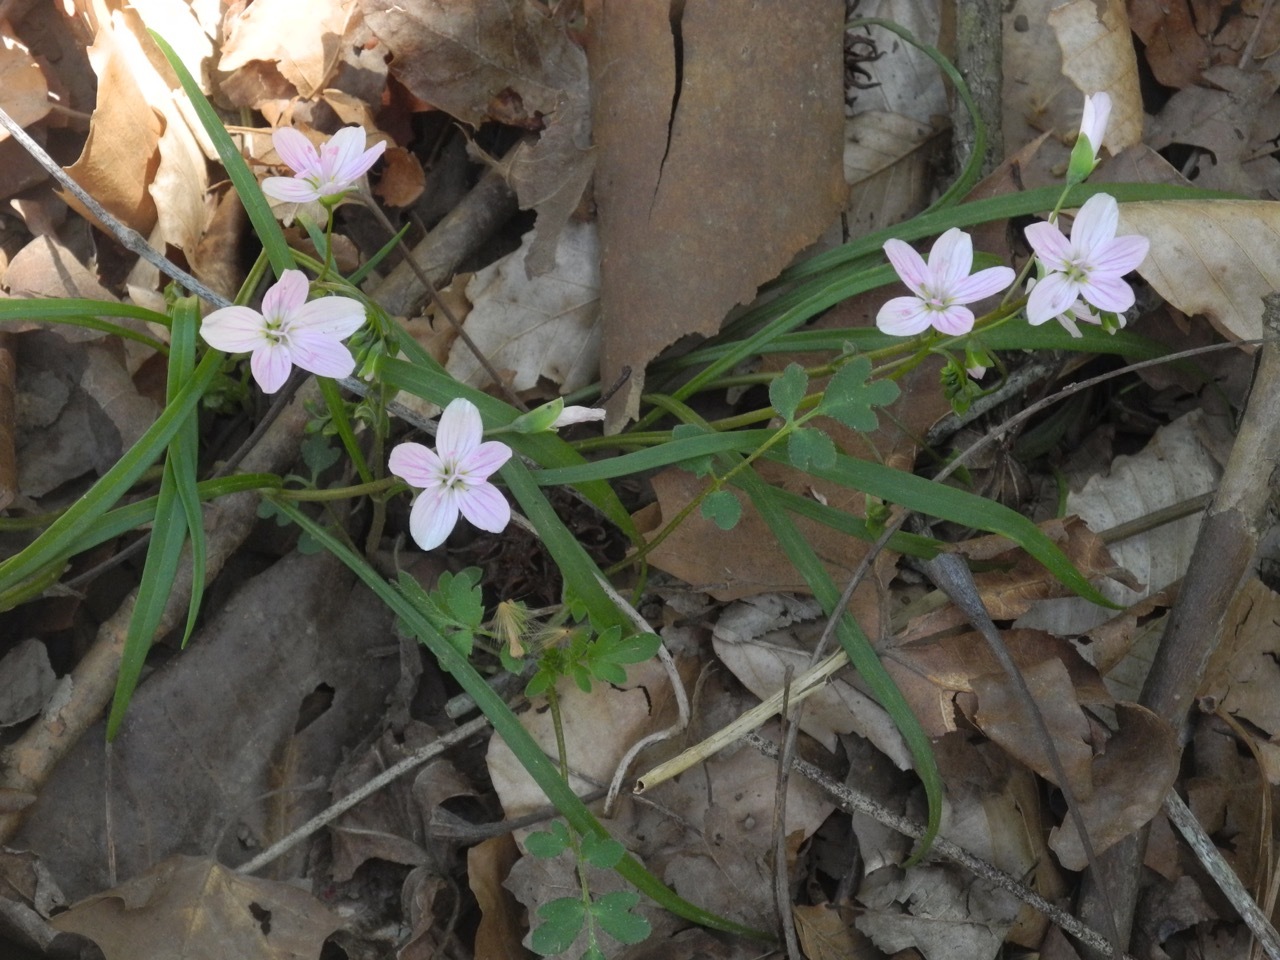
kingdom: Plantae
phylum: Tracheophyta
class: Magnoliopsida
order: Caryophyllales
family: Montiaceae
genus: Claytonia
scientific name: Claytonia virginica
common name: Virginia springbeauty
